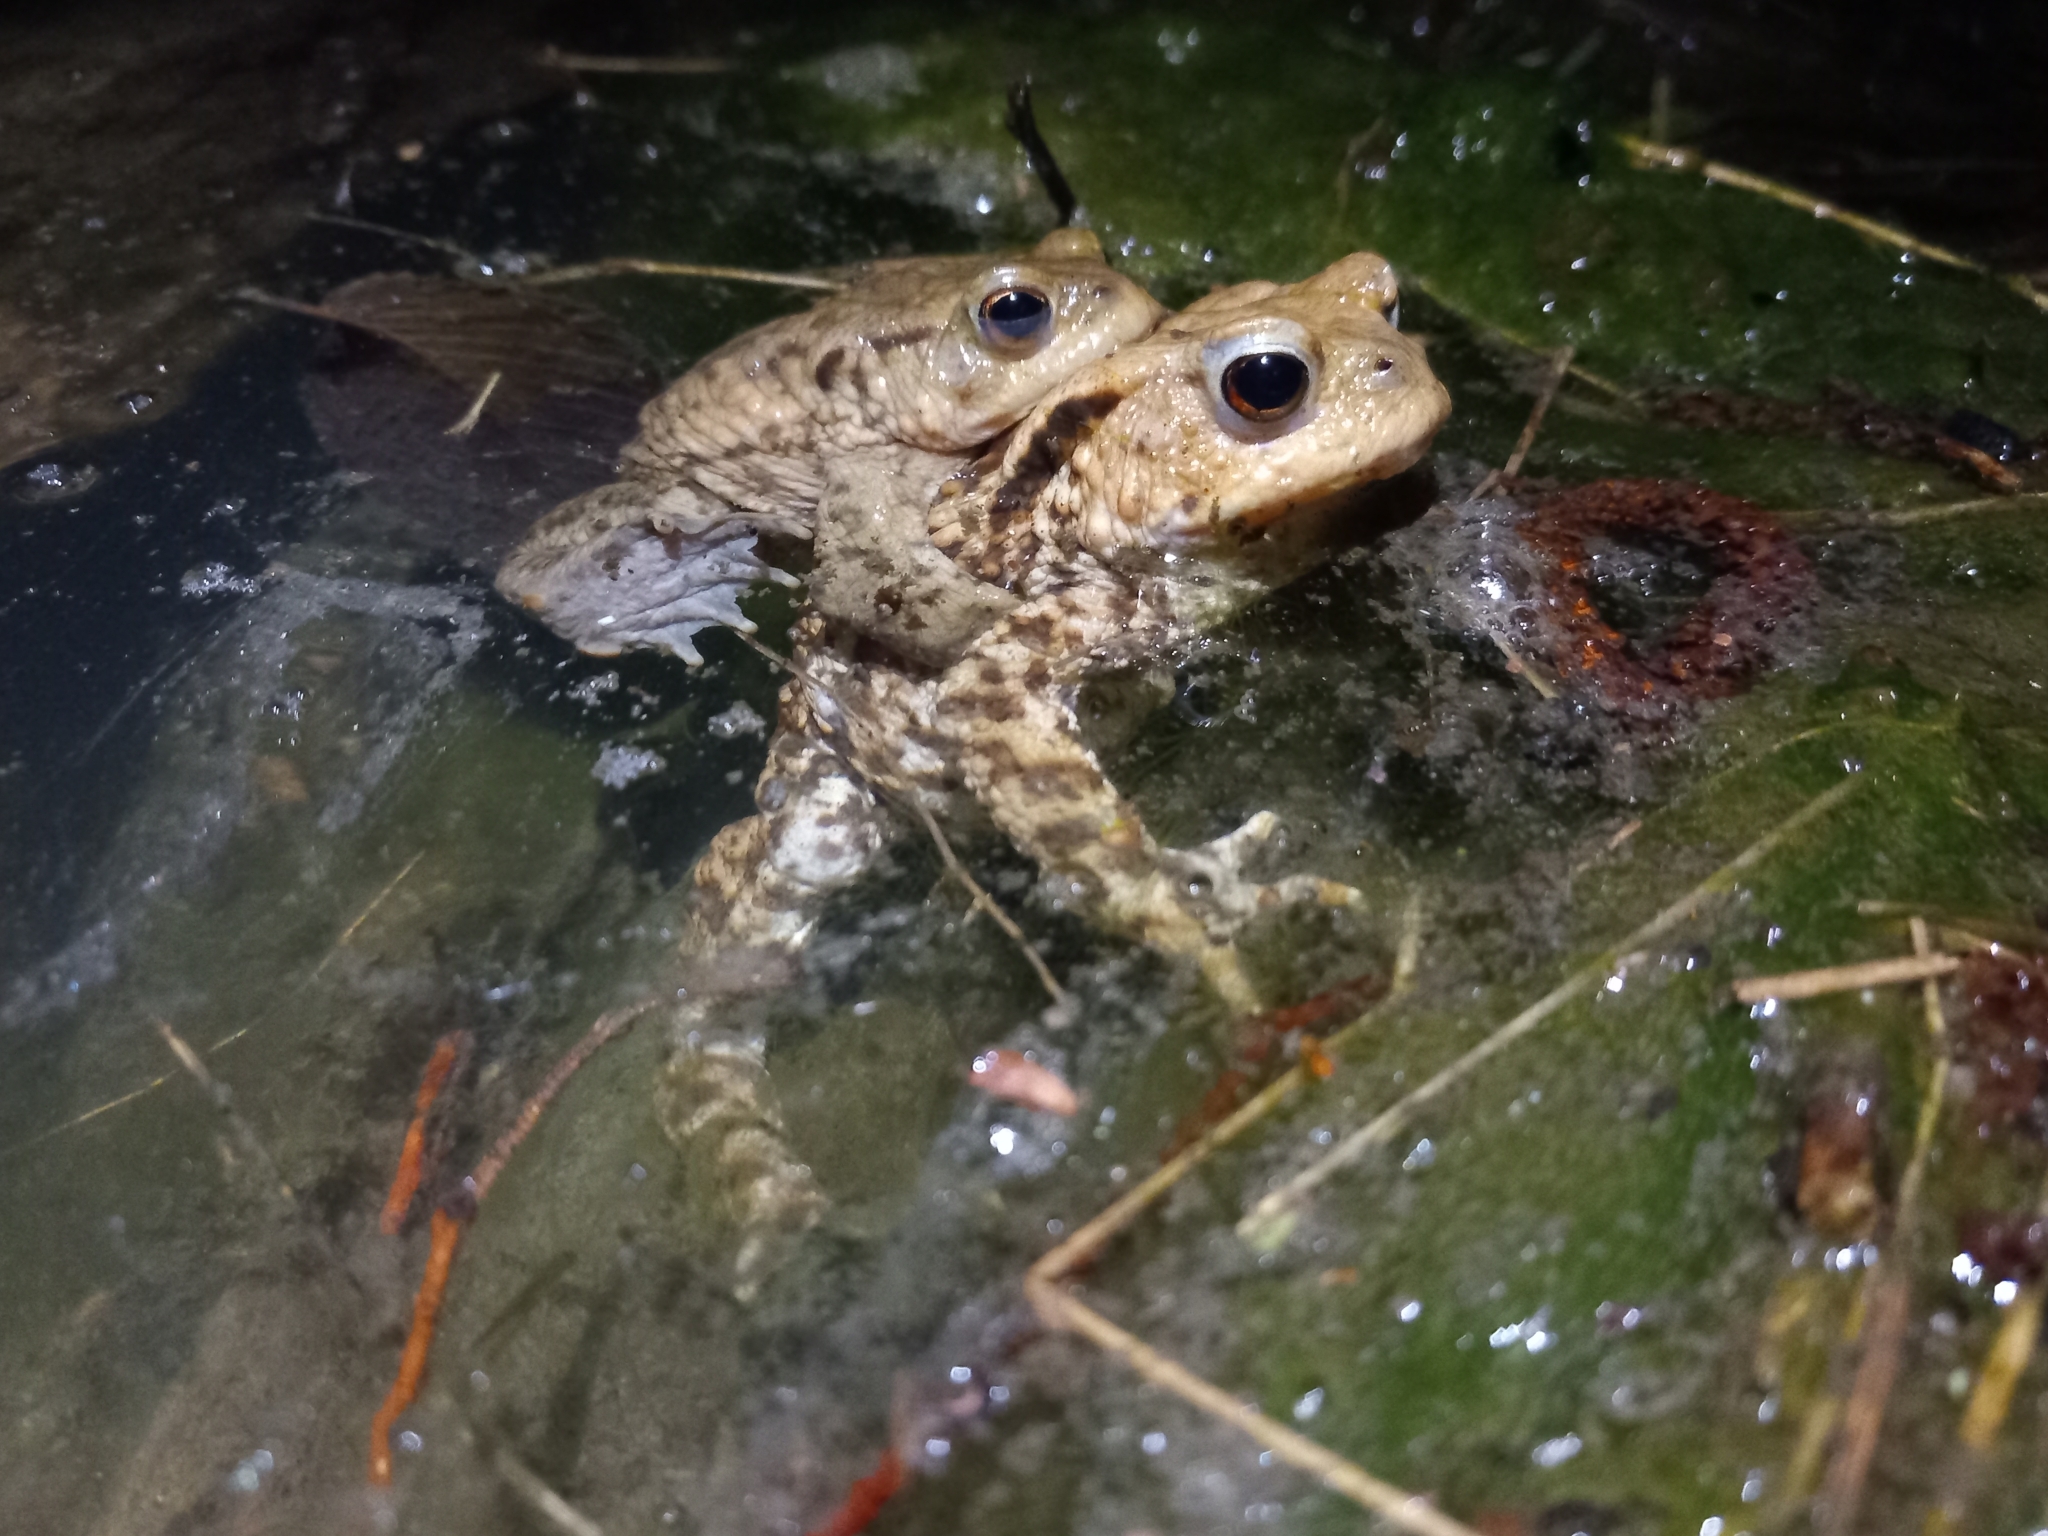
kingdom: Animalia
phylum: Chordata
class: Amphibia
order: Anura
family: Bufonidae
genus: Bufo
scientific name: Bufo bufo
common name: Common toad
